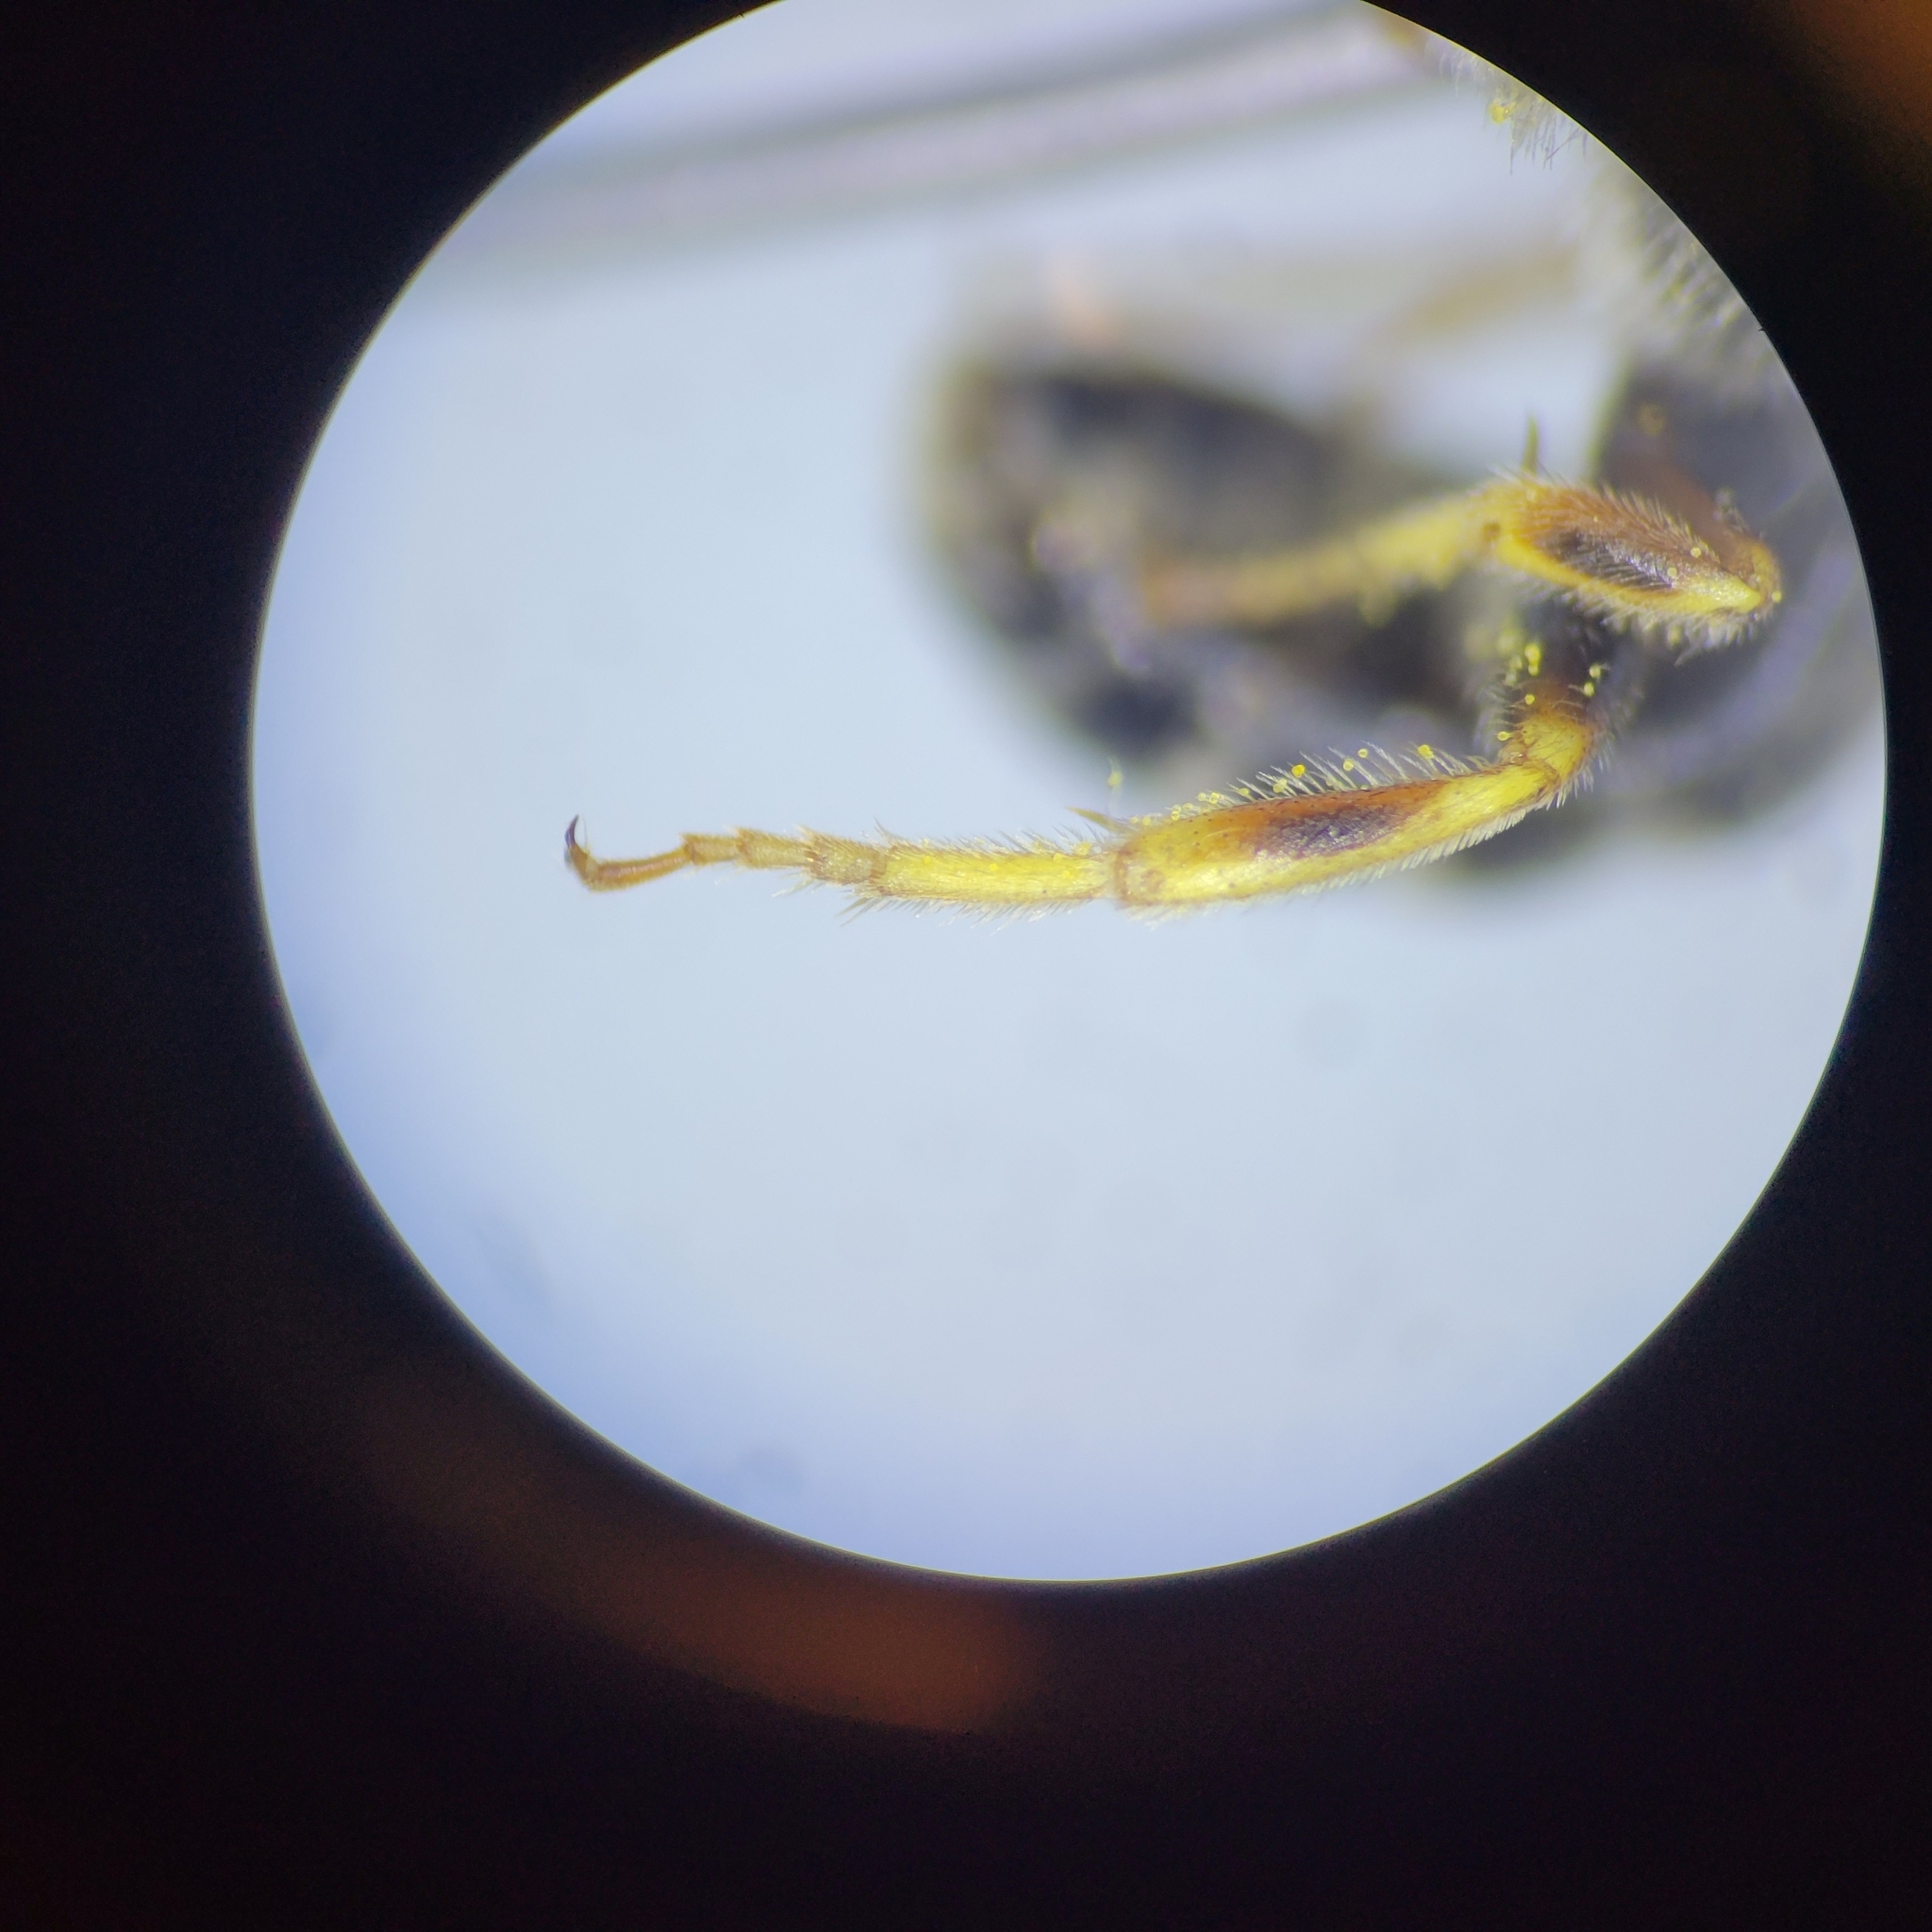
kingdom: Animalia
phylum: Arthropoda
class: Insecta
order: Hymenoptera
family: Halictidae
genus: Halictus
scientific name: Halictus ligatus
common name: Ligated furrow bee
